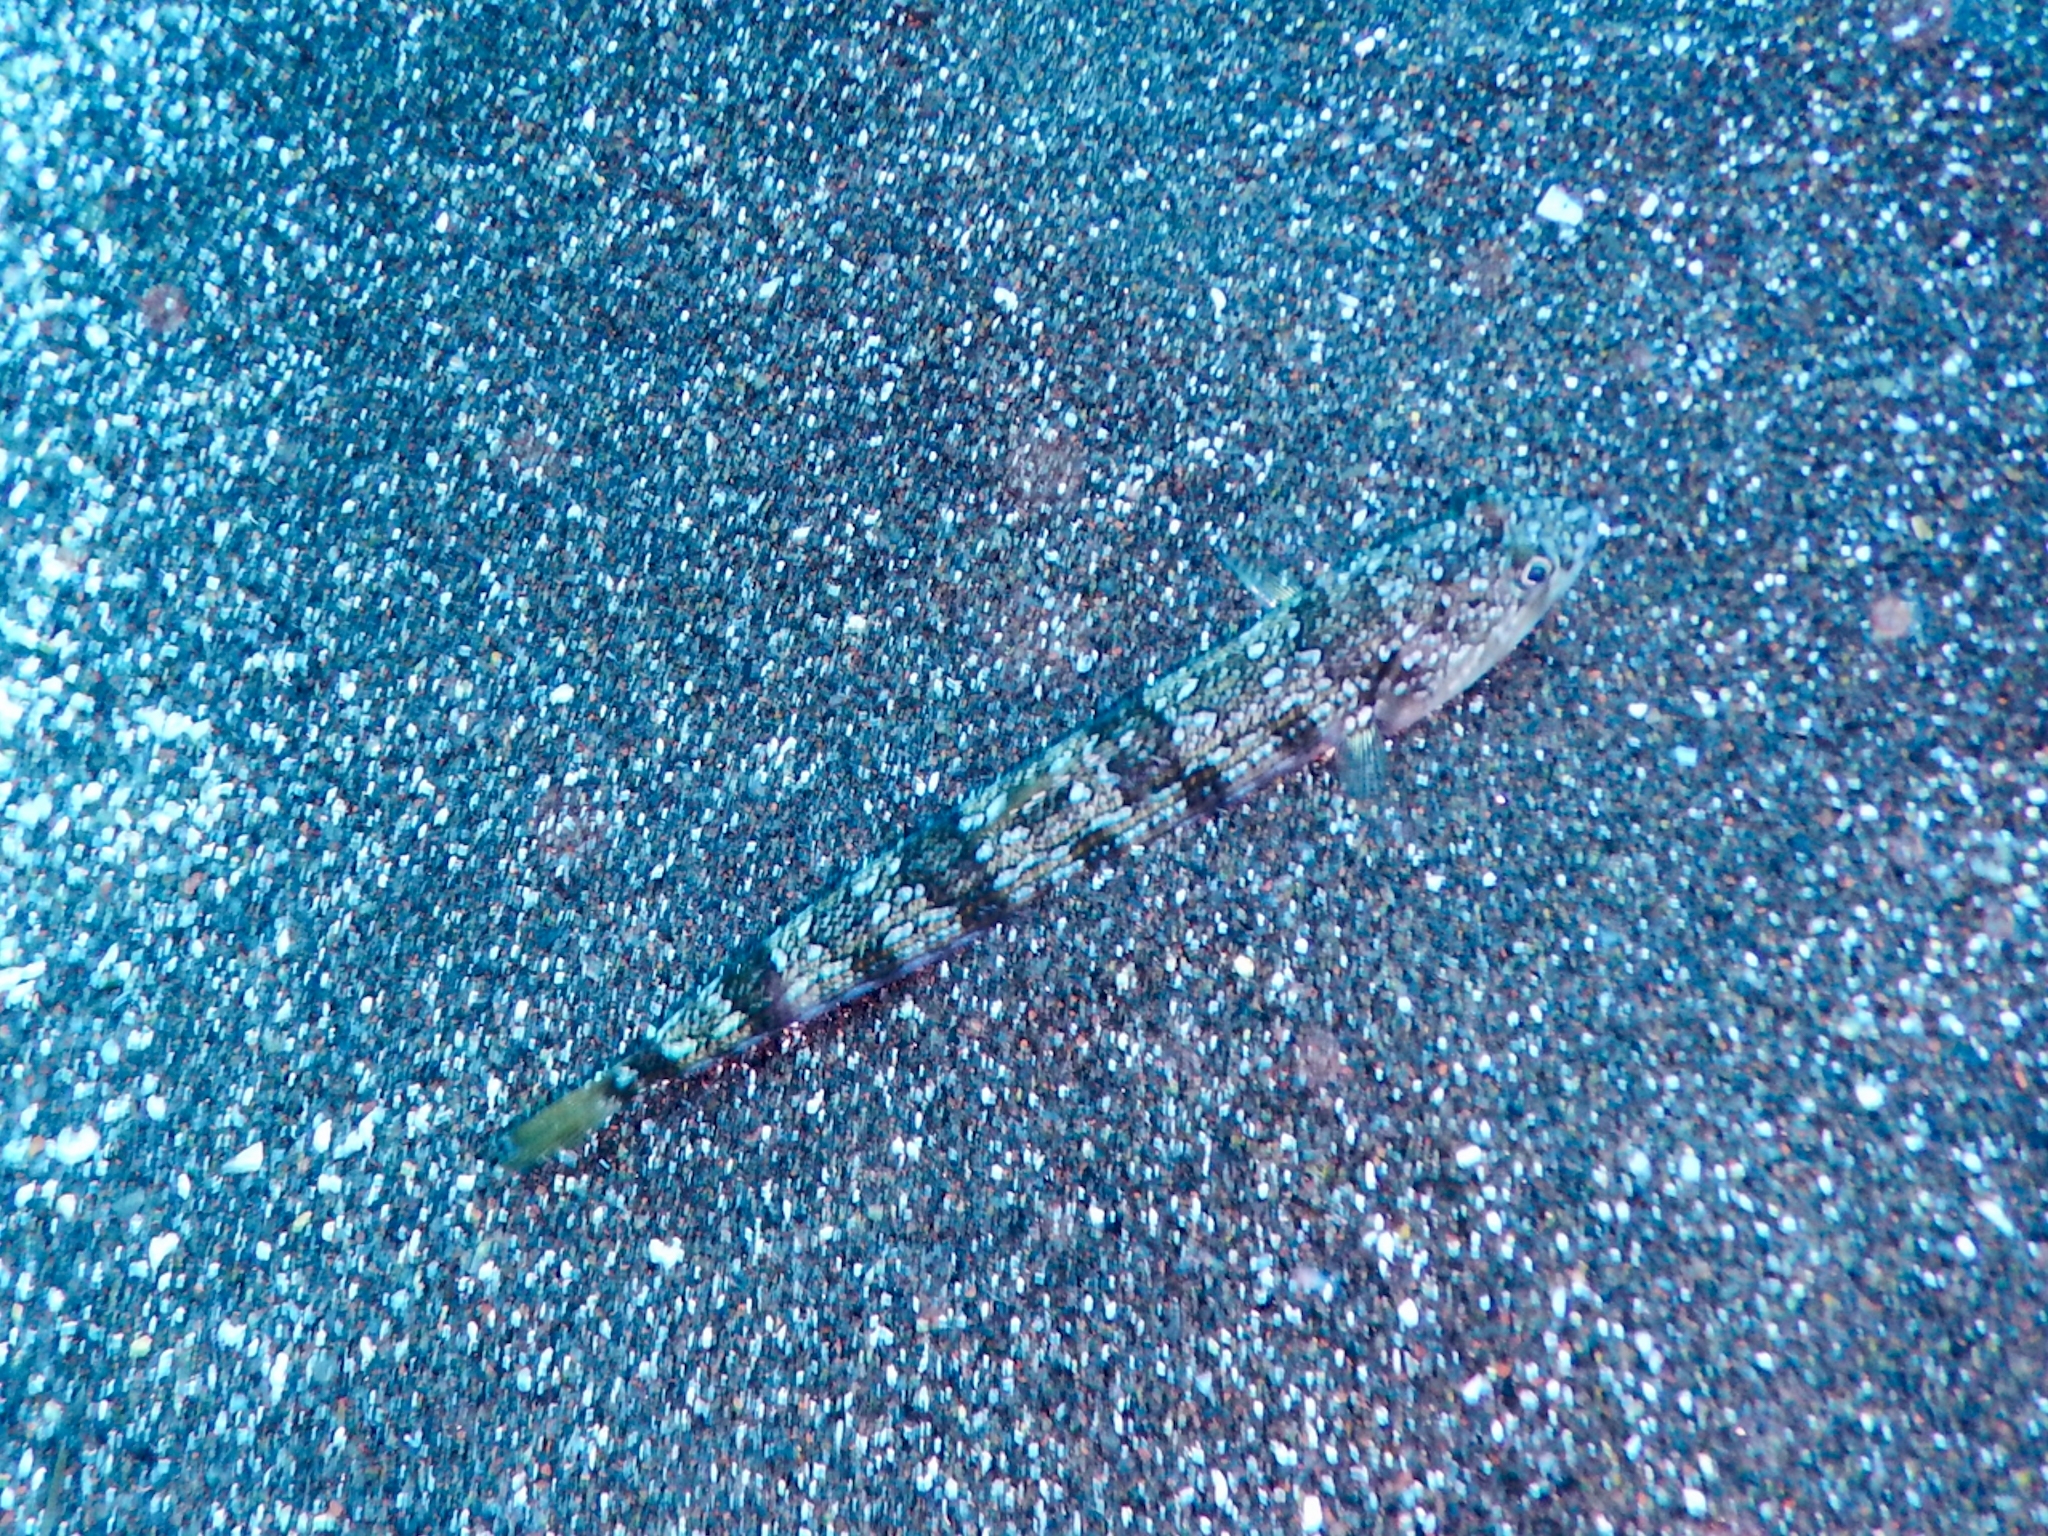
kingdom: Animalia
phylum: Chordata
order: Aulopiformes
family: Synodontidae
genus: Synodus
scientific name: Synodus saurus
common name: Atlantic lizardfish
